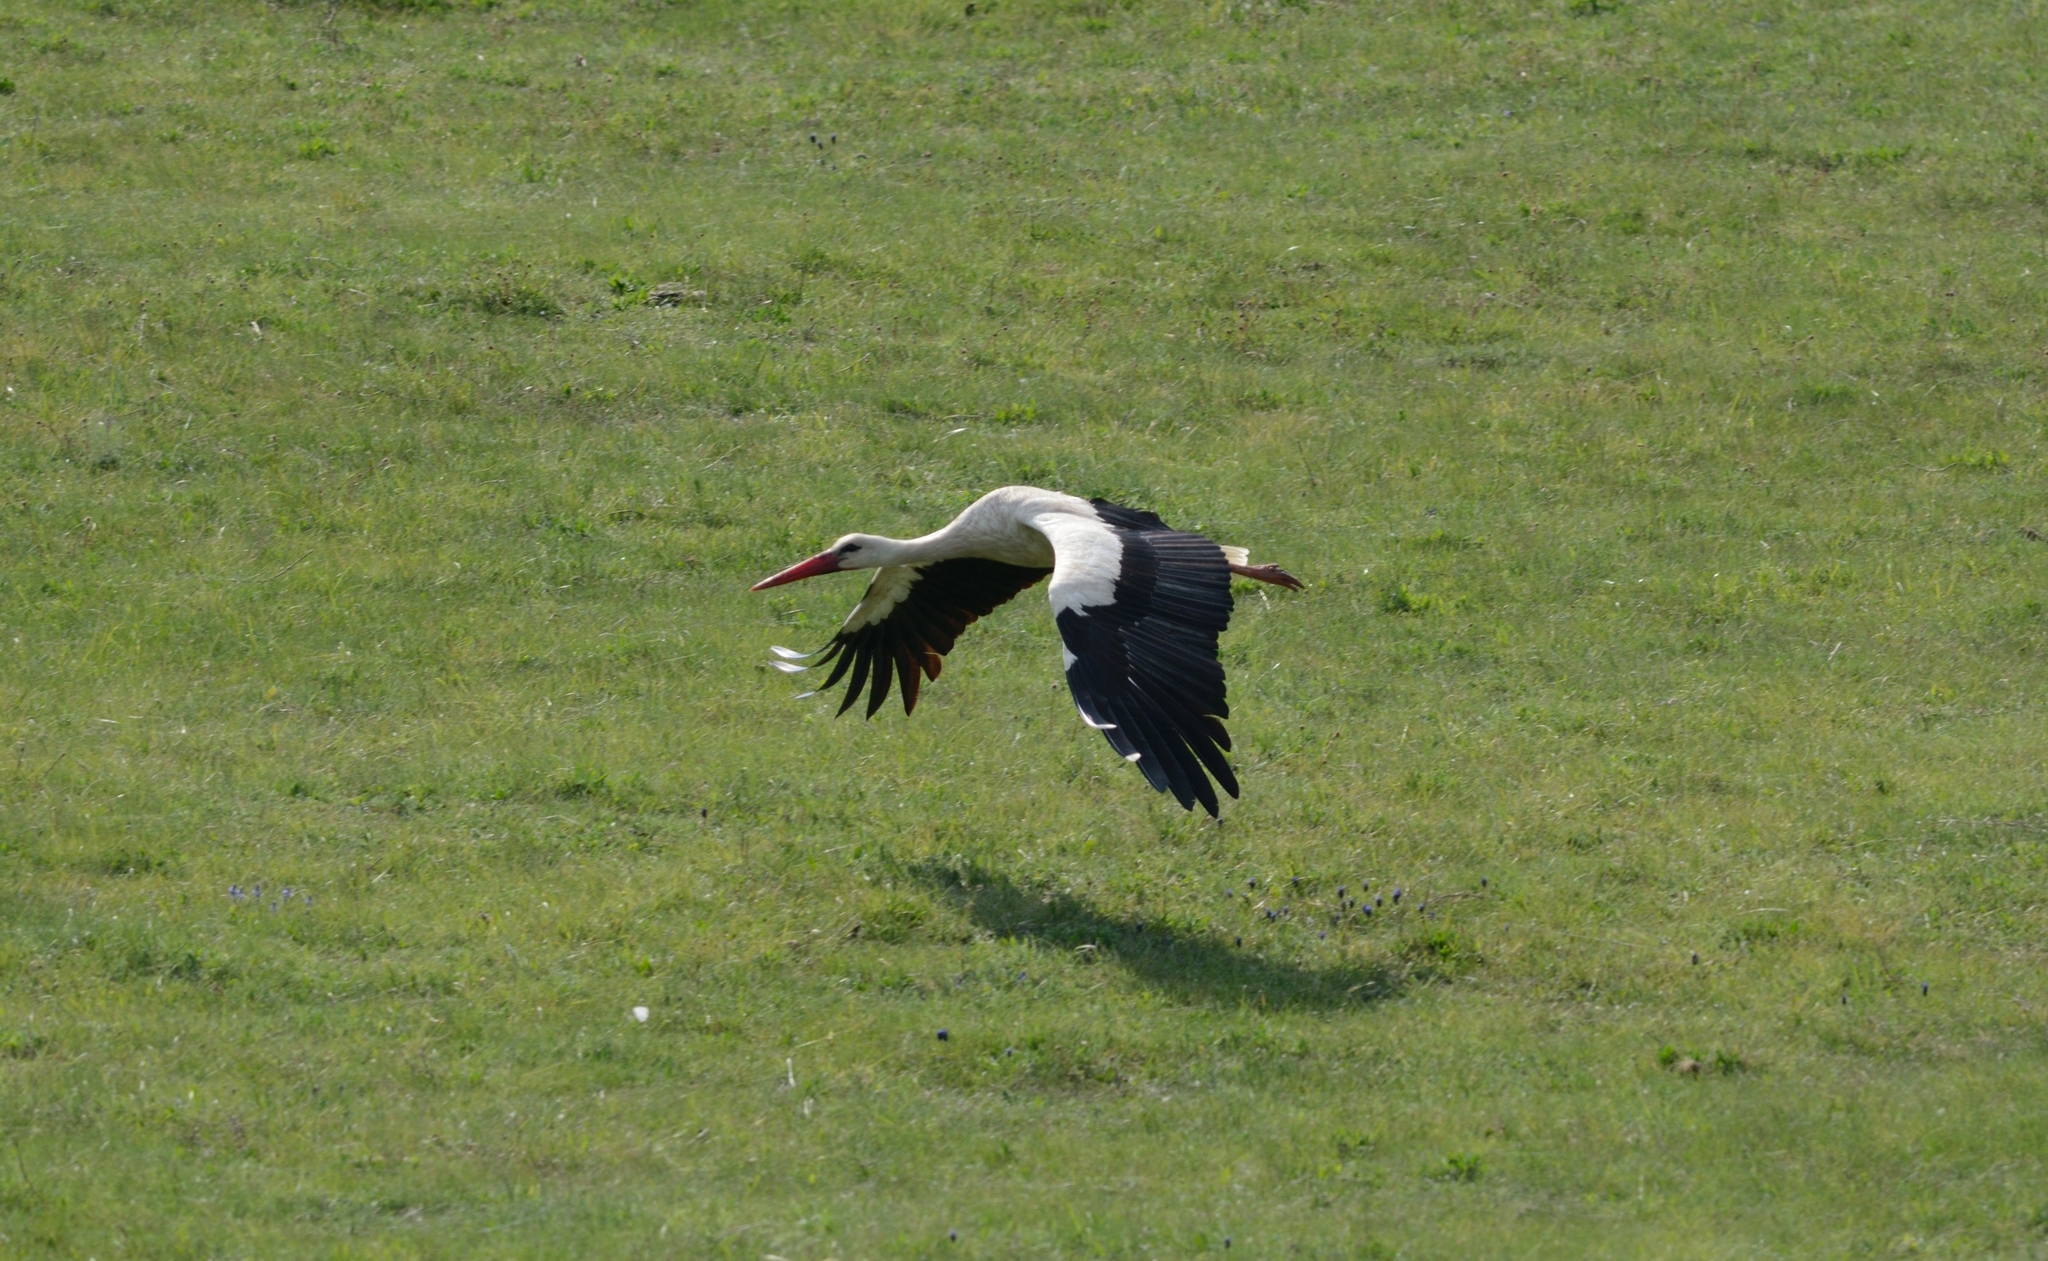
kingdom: Animalia
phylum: Chordata
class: Aves
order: Ciconiiformes
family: Ciconiidae
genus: Ciconia
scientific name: Ciconia ciconia
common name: White stork
